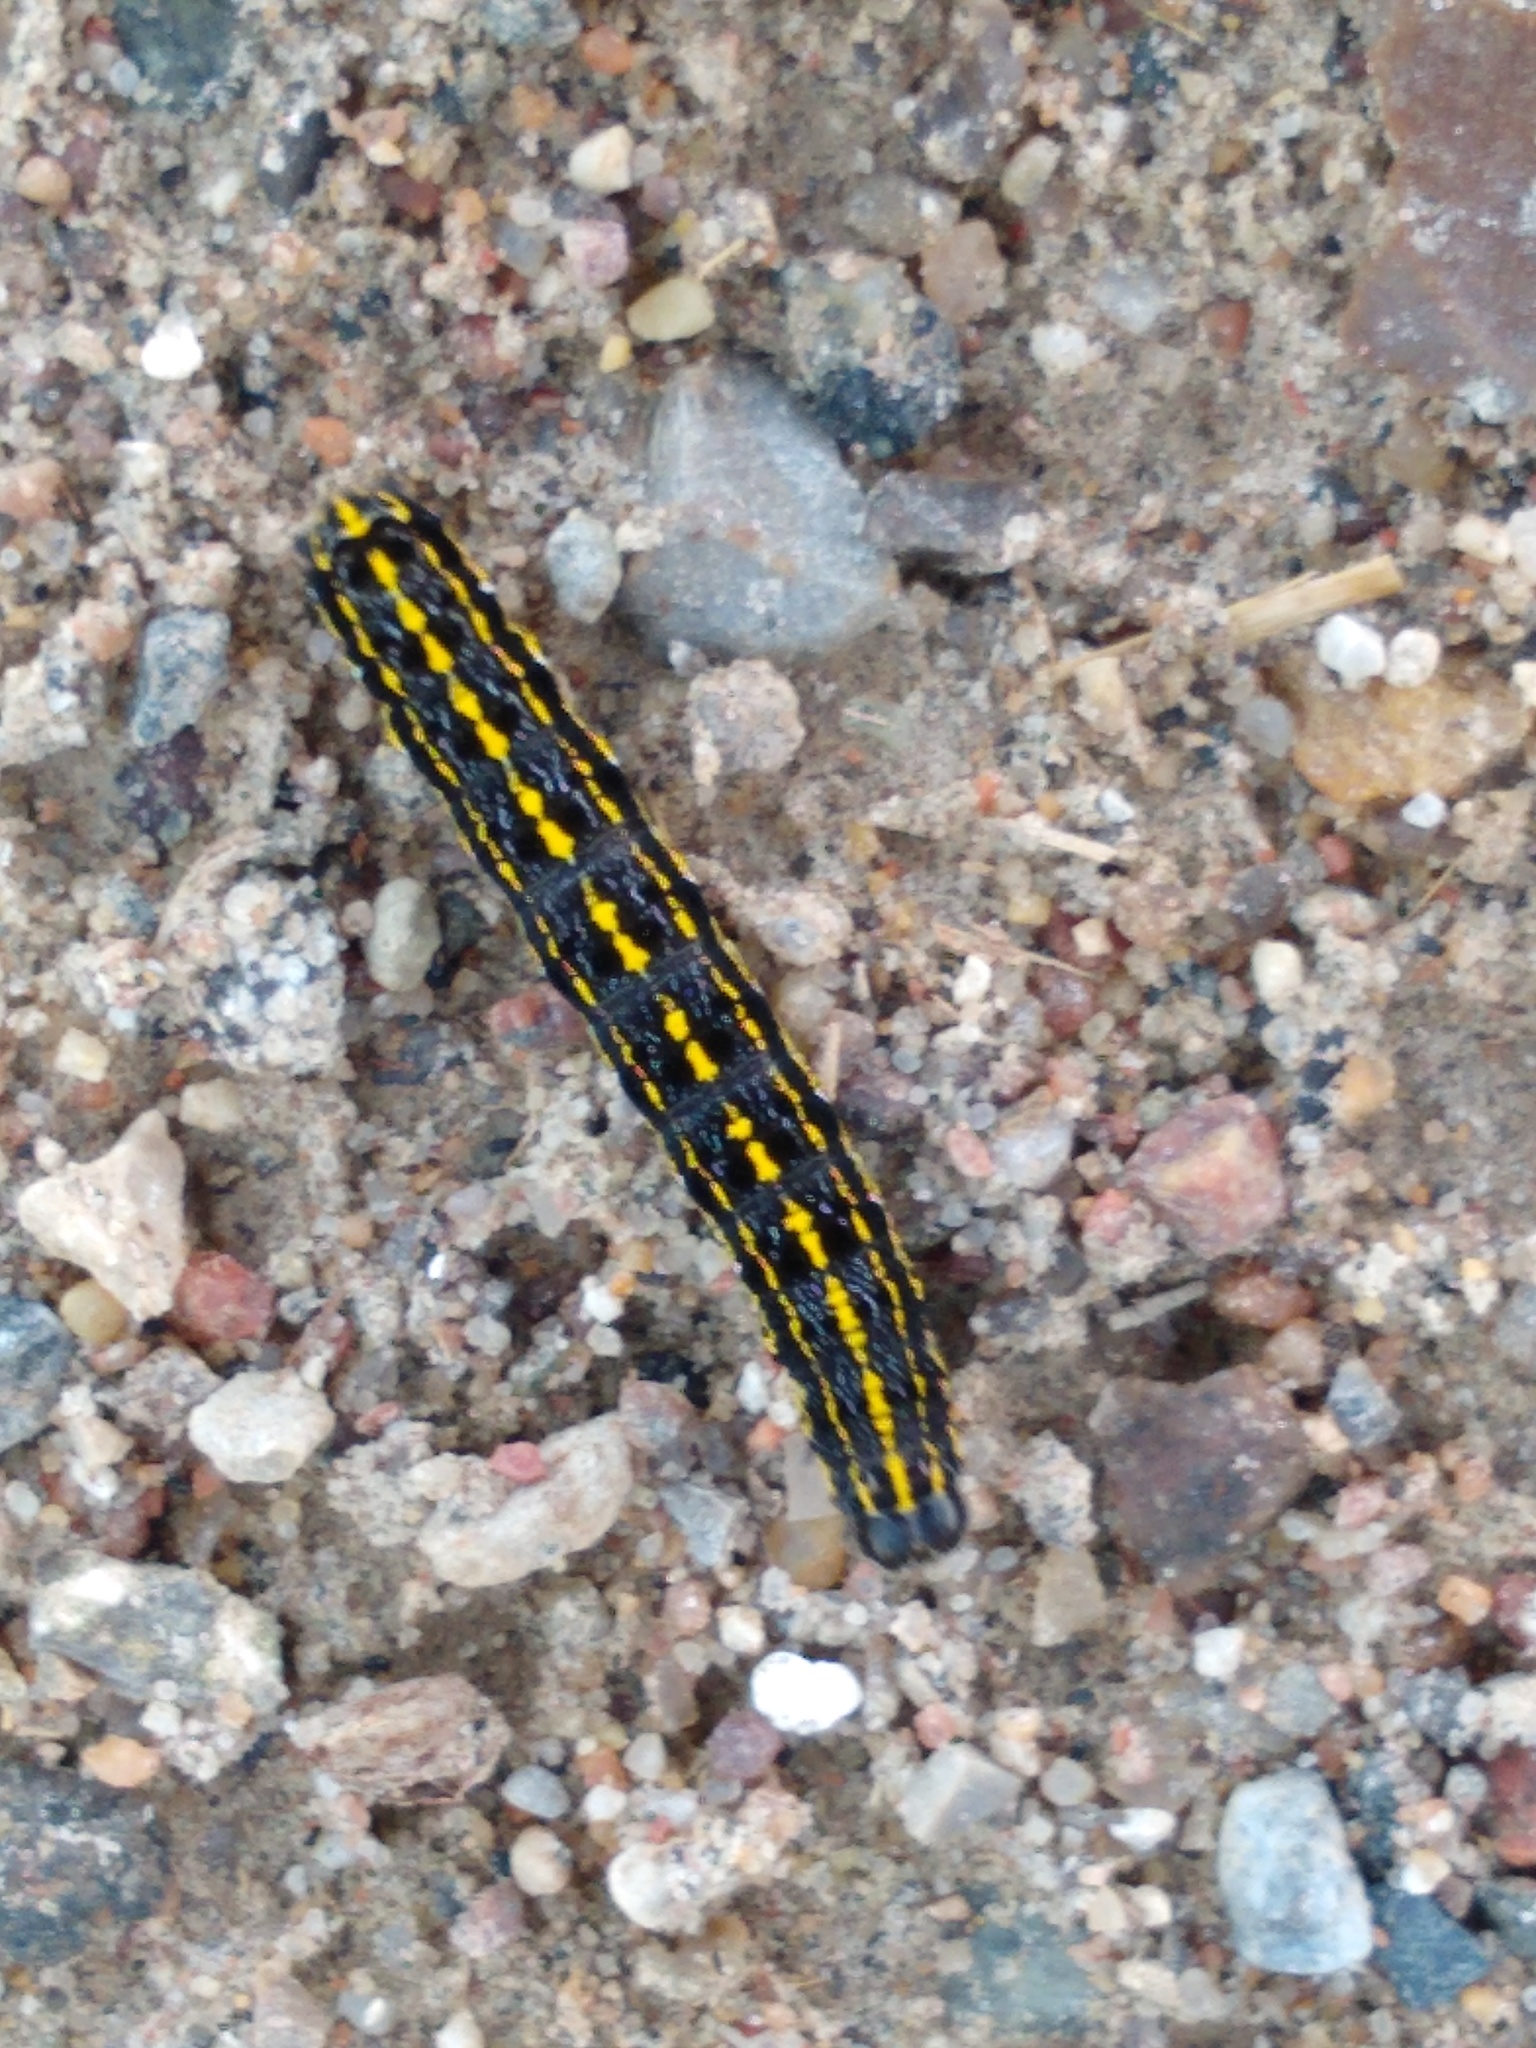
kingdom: Animalia
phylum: Arthropoda
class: Insecta
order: Lepidoptera
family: Noctuidae
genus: Orthosia
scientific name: Orthosia miniosa
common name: Blossom underwing
